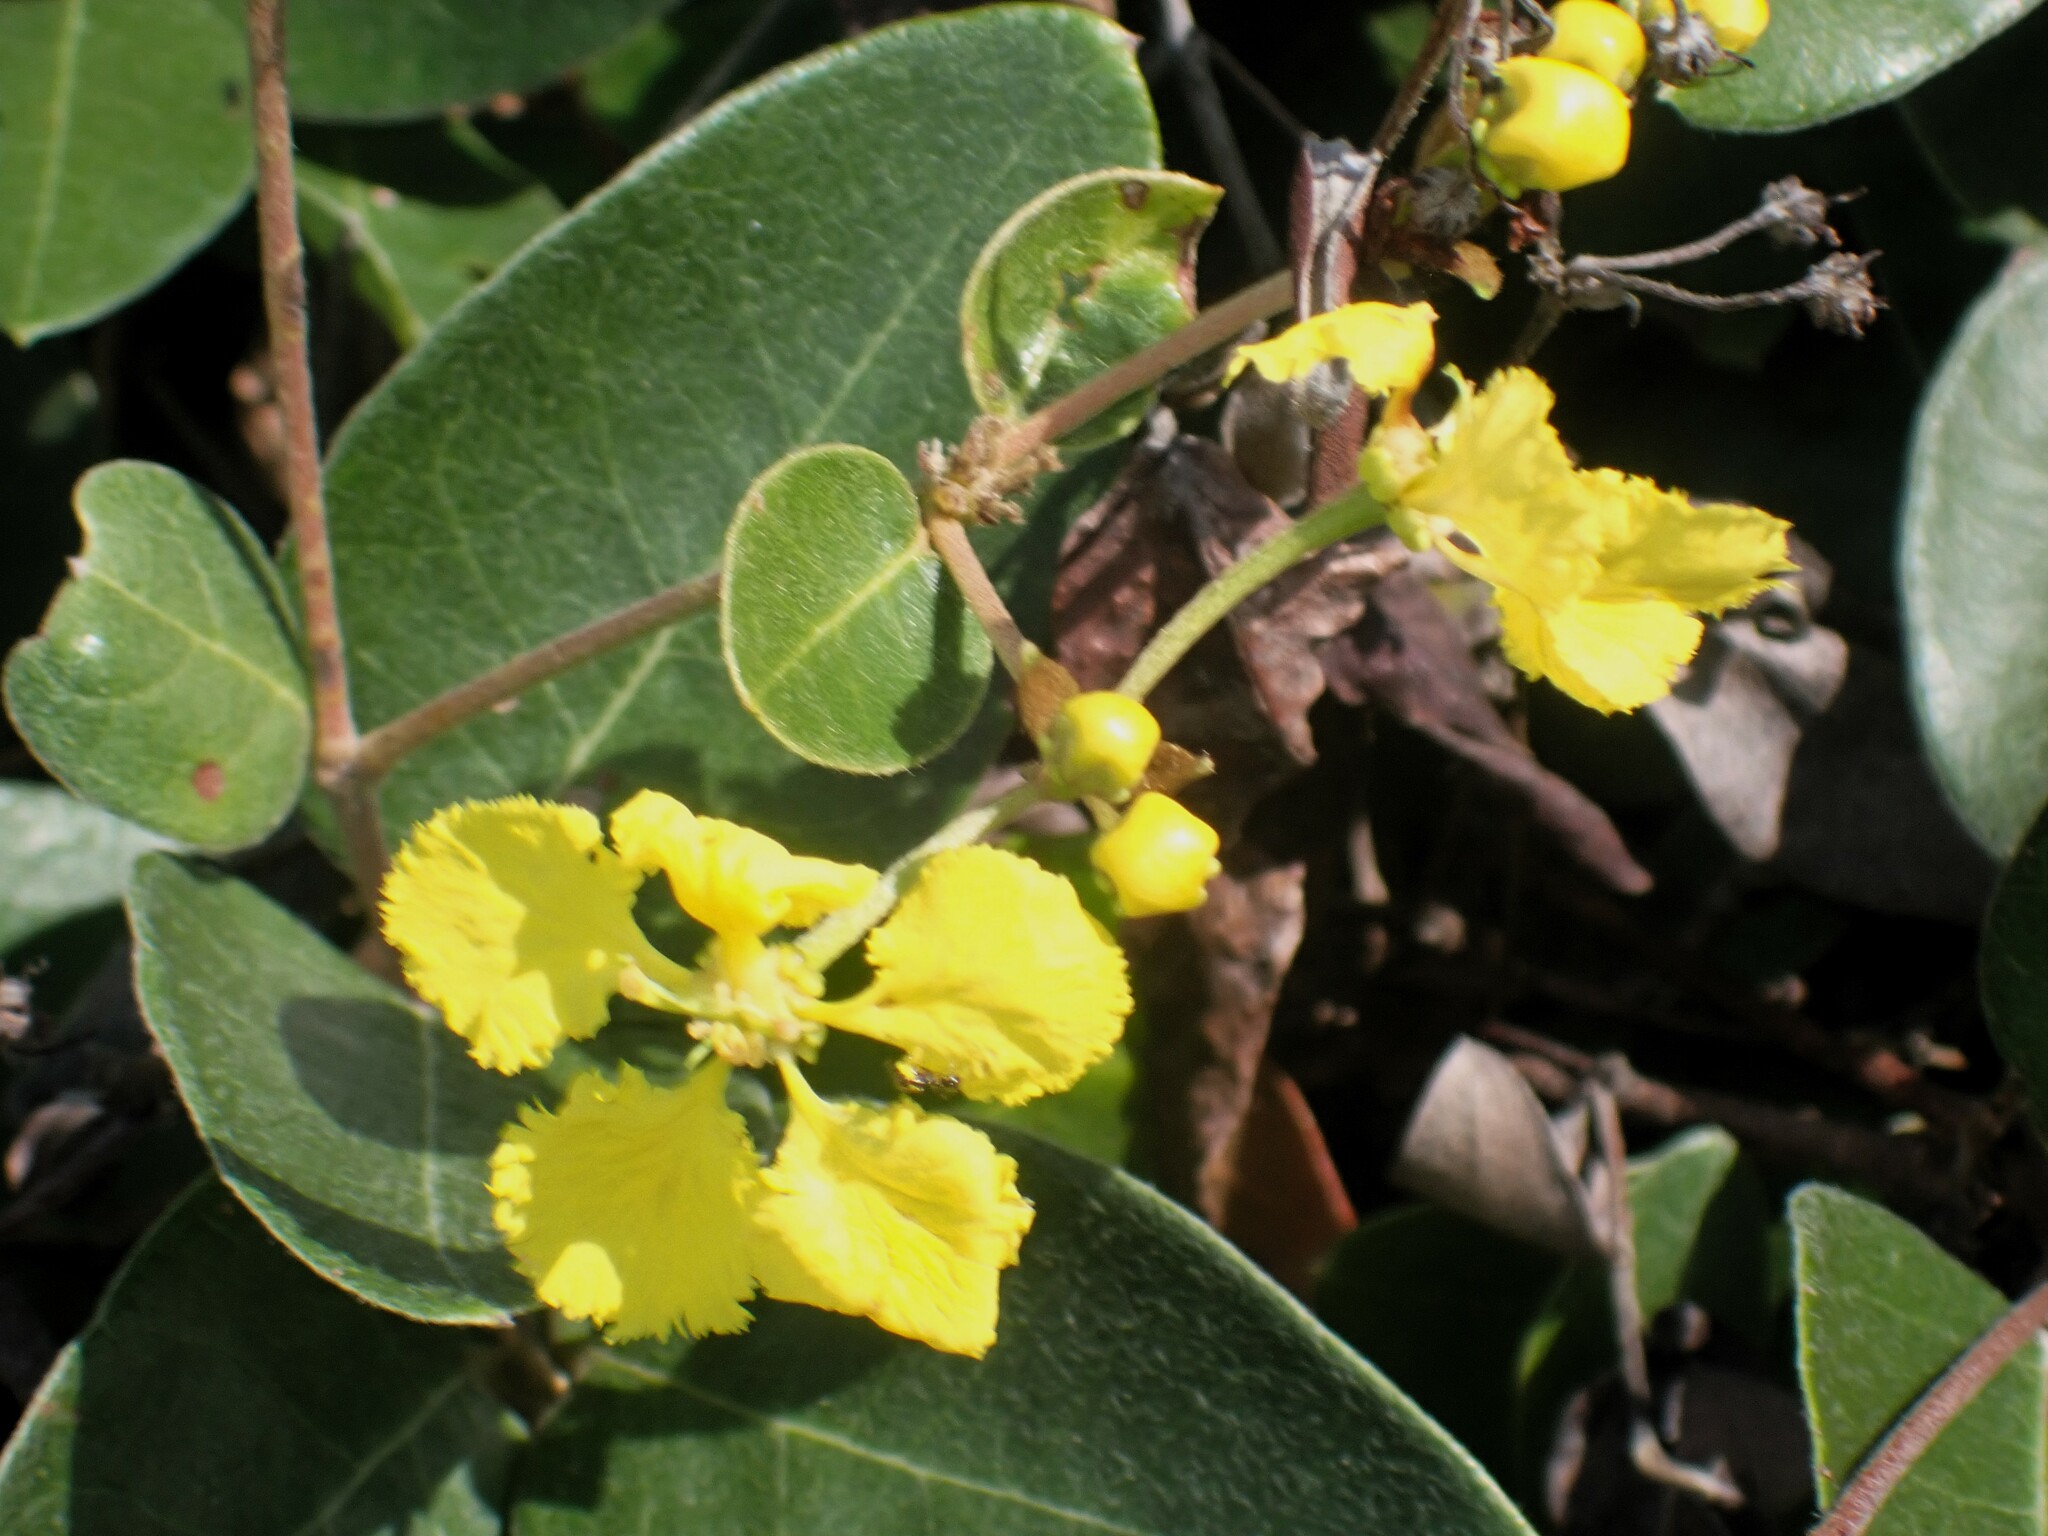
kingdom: Plantae
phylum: Tracheophyta
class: Magnoliopsida
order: Malpighiales
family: Malpighiaceae
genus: Stigmaphyllon
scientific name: Stigmaphyllon emarginatum
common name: Monarch amazonvine
